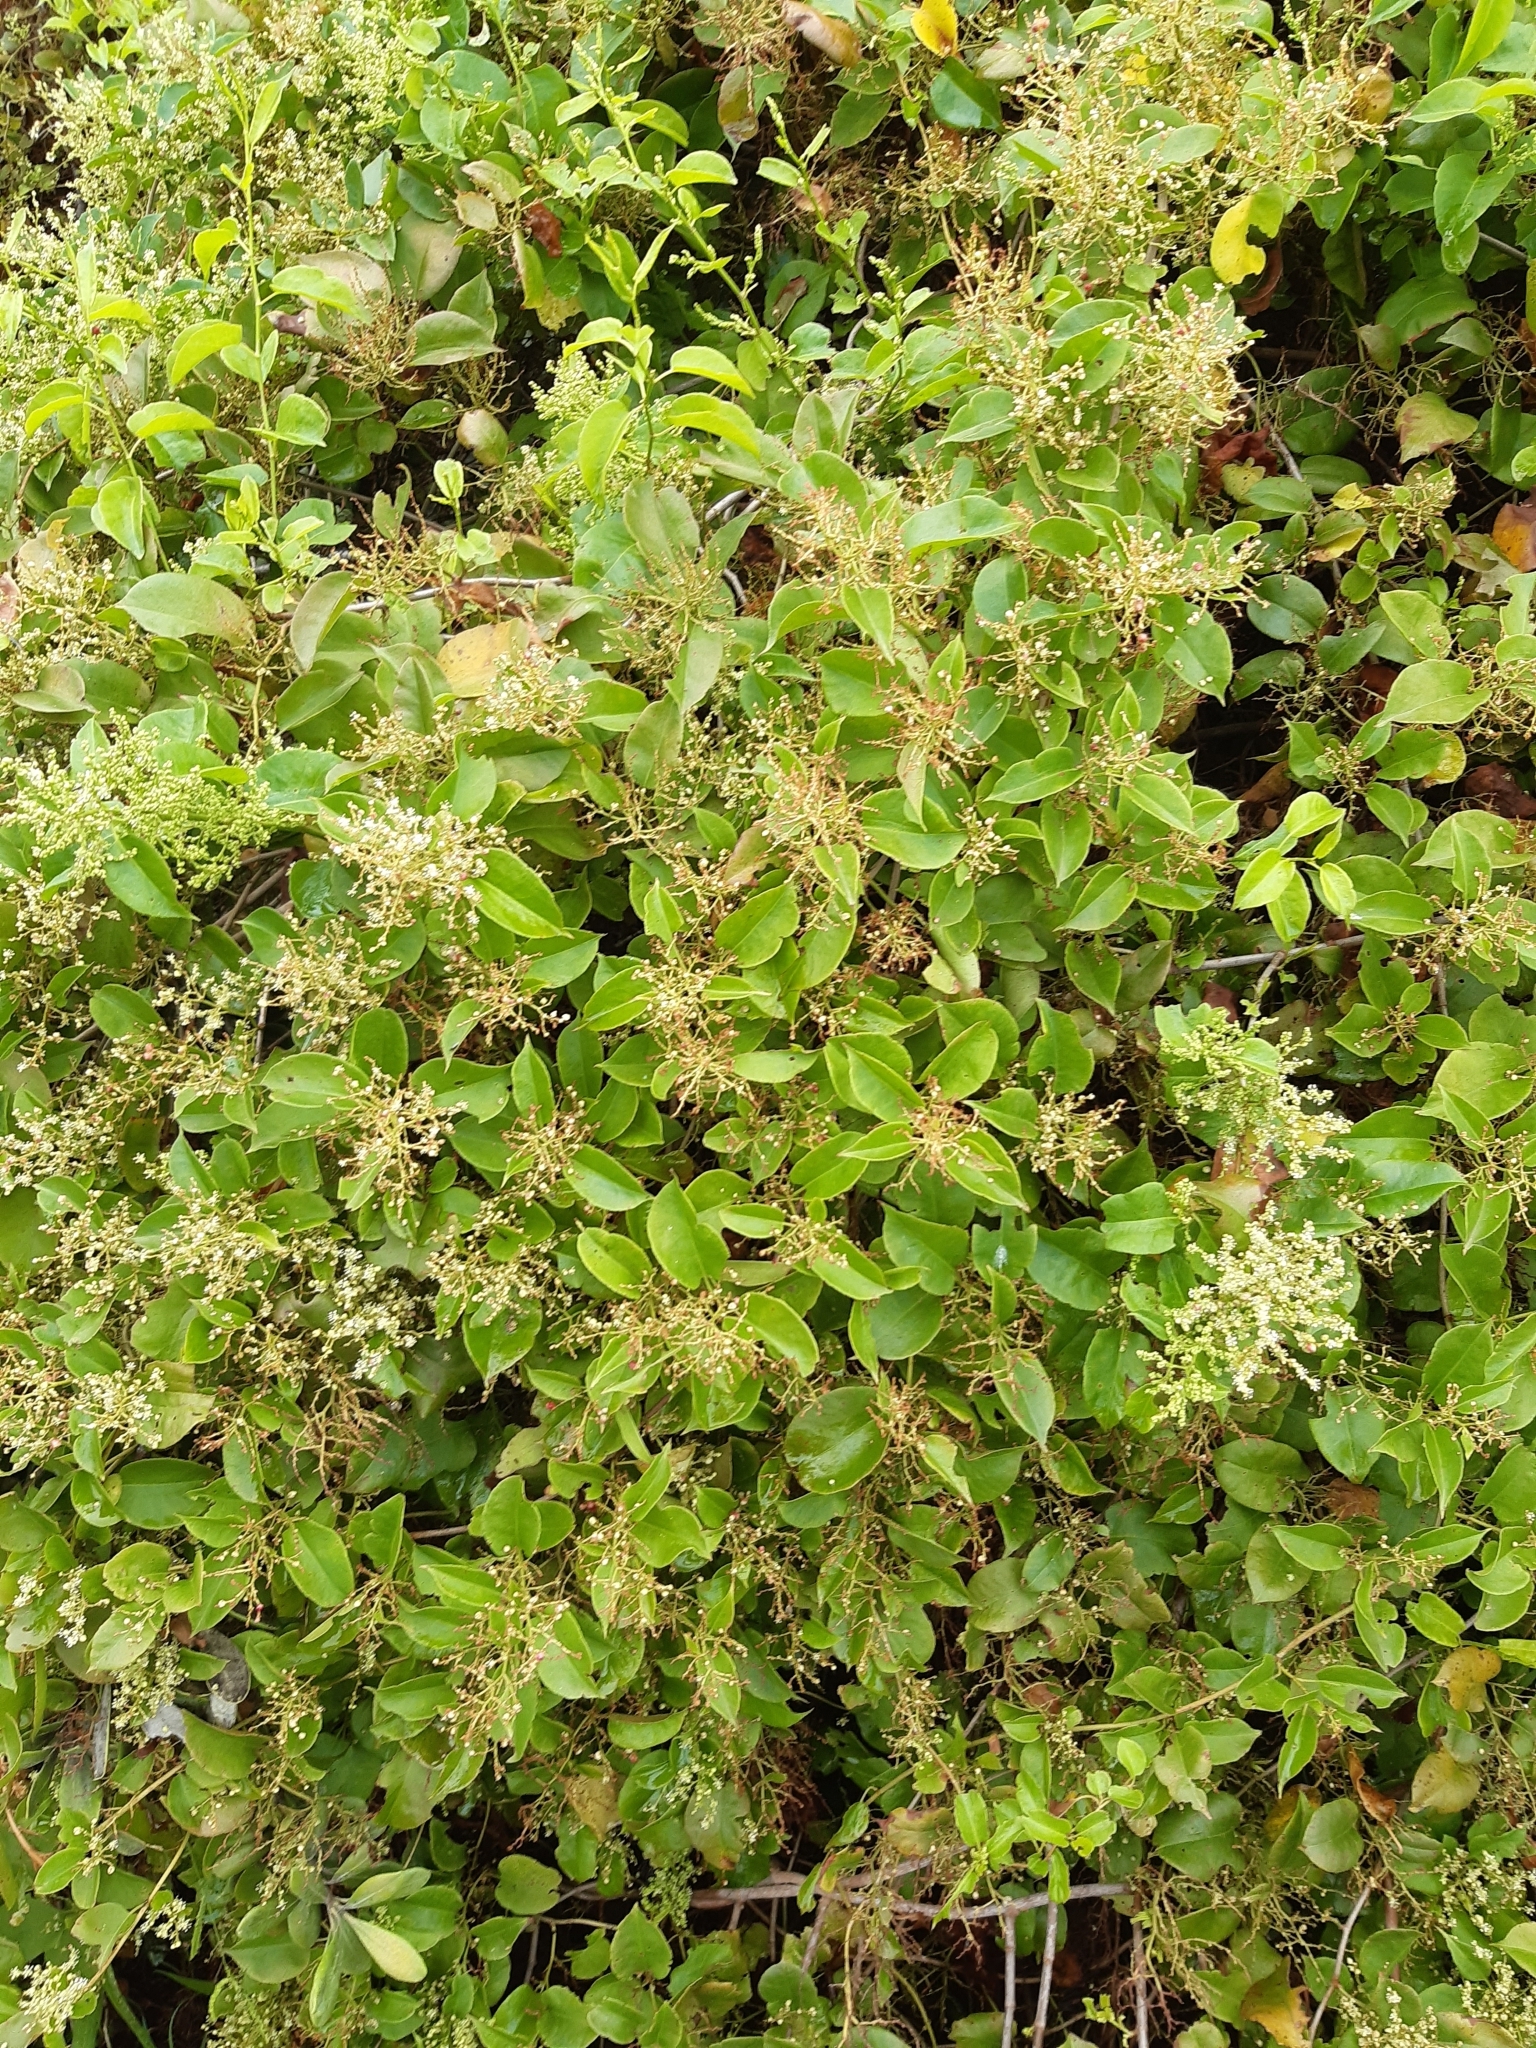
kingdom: Plantae
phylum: Tracheophyta
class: Magnoliopsida
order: Caryophyllales
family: Polygonaceae
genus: Muehlenbeckia
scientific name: Muehlenbeckia australis
